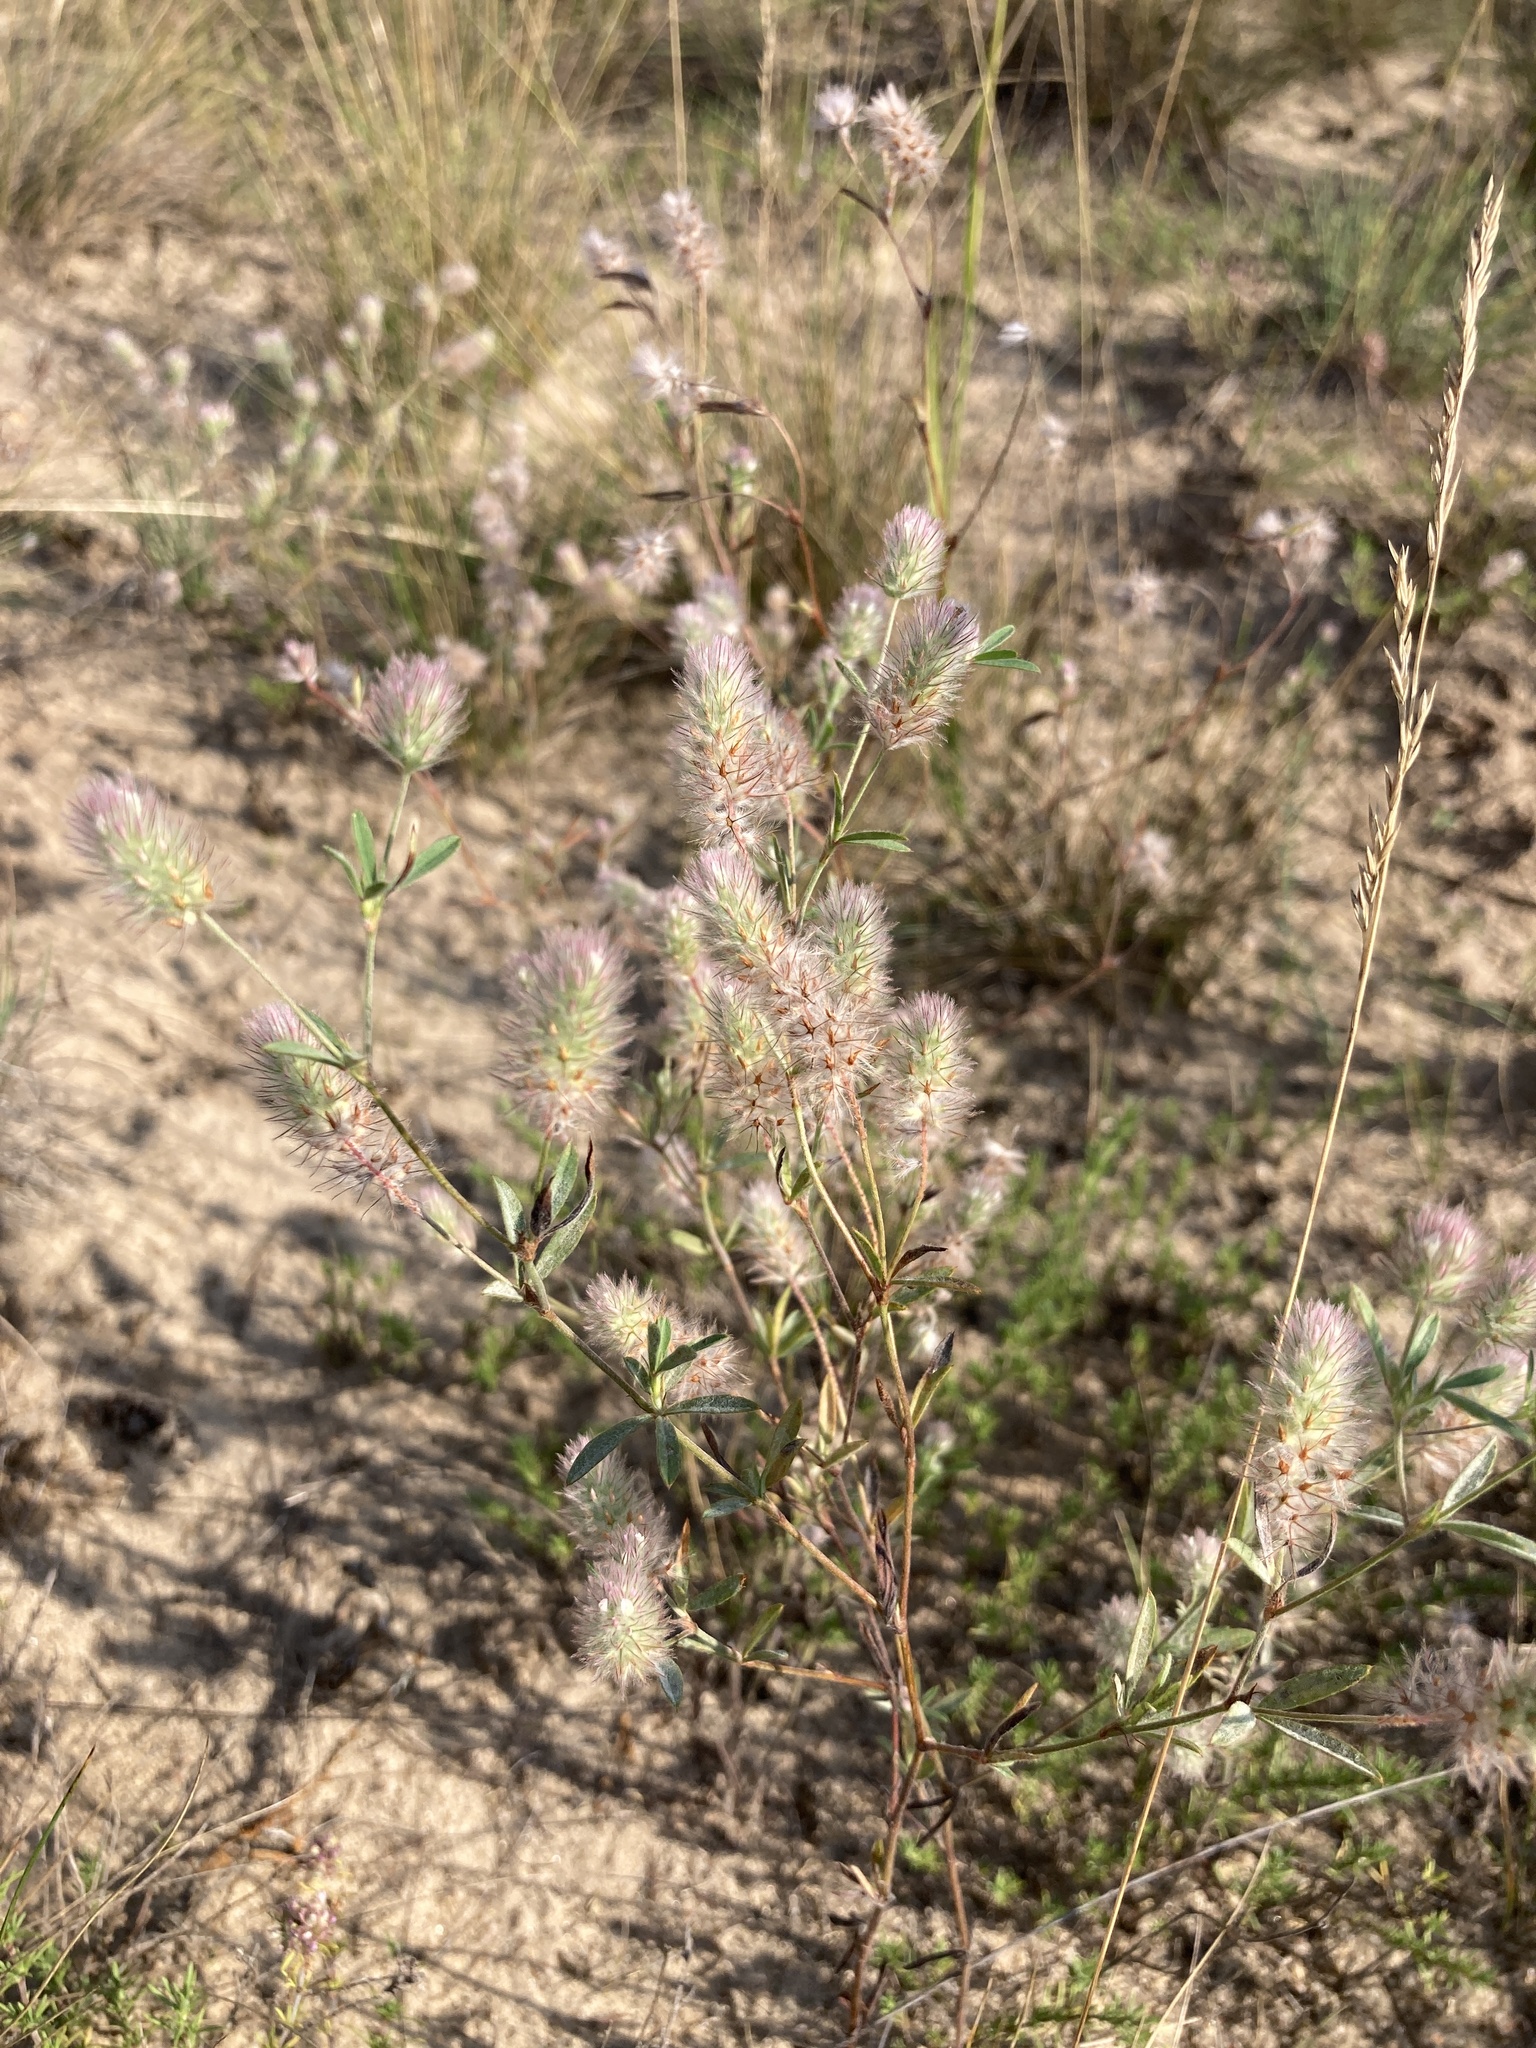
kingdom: Plantae
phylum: Tracheophyta
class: Magnoliopsida
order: Fabales
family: Fabaceae
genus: Trifolium
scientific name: Trifolium arvense
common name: Hare's-foot clover
